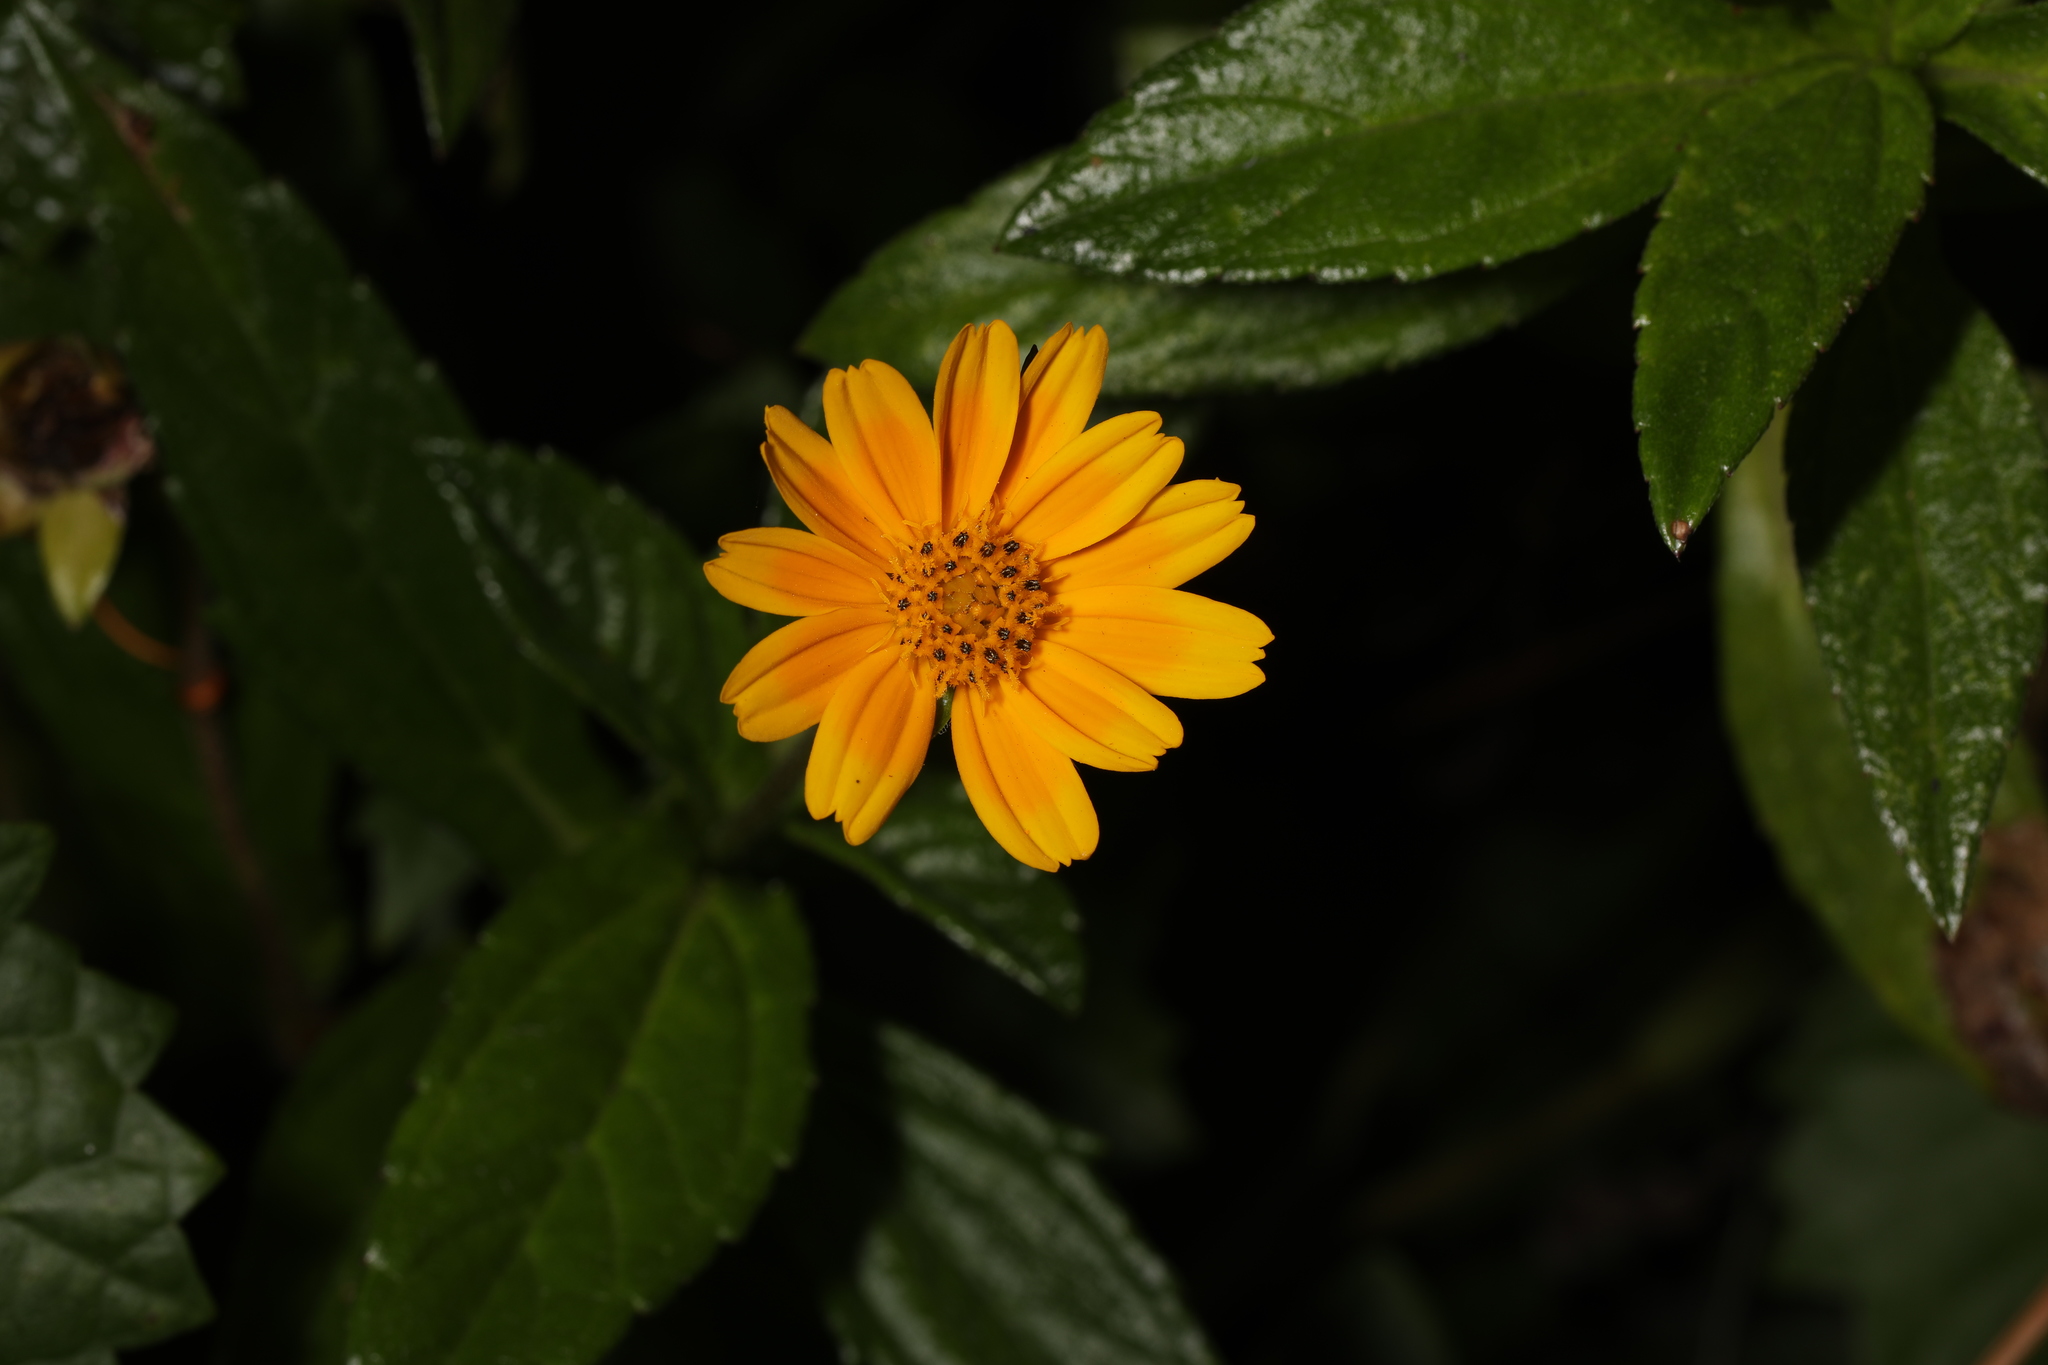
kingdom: Plantae
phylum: Tracheophyta
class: Magnoliopsida
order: Asterales
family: Asteraceae
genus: Sphagneticola
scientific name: Sphagneticola trilobata
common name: Bay biscayne creeping-oxeye
